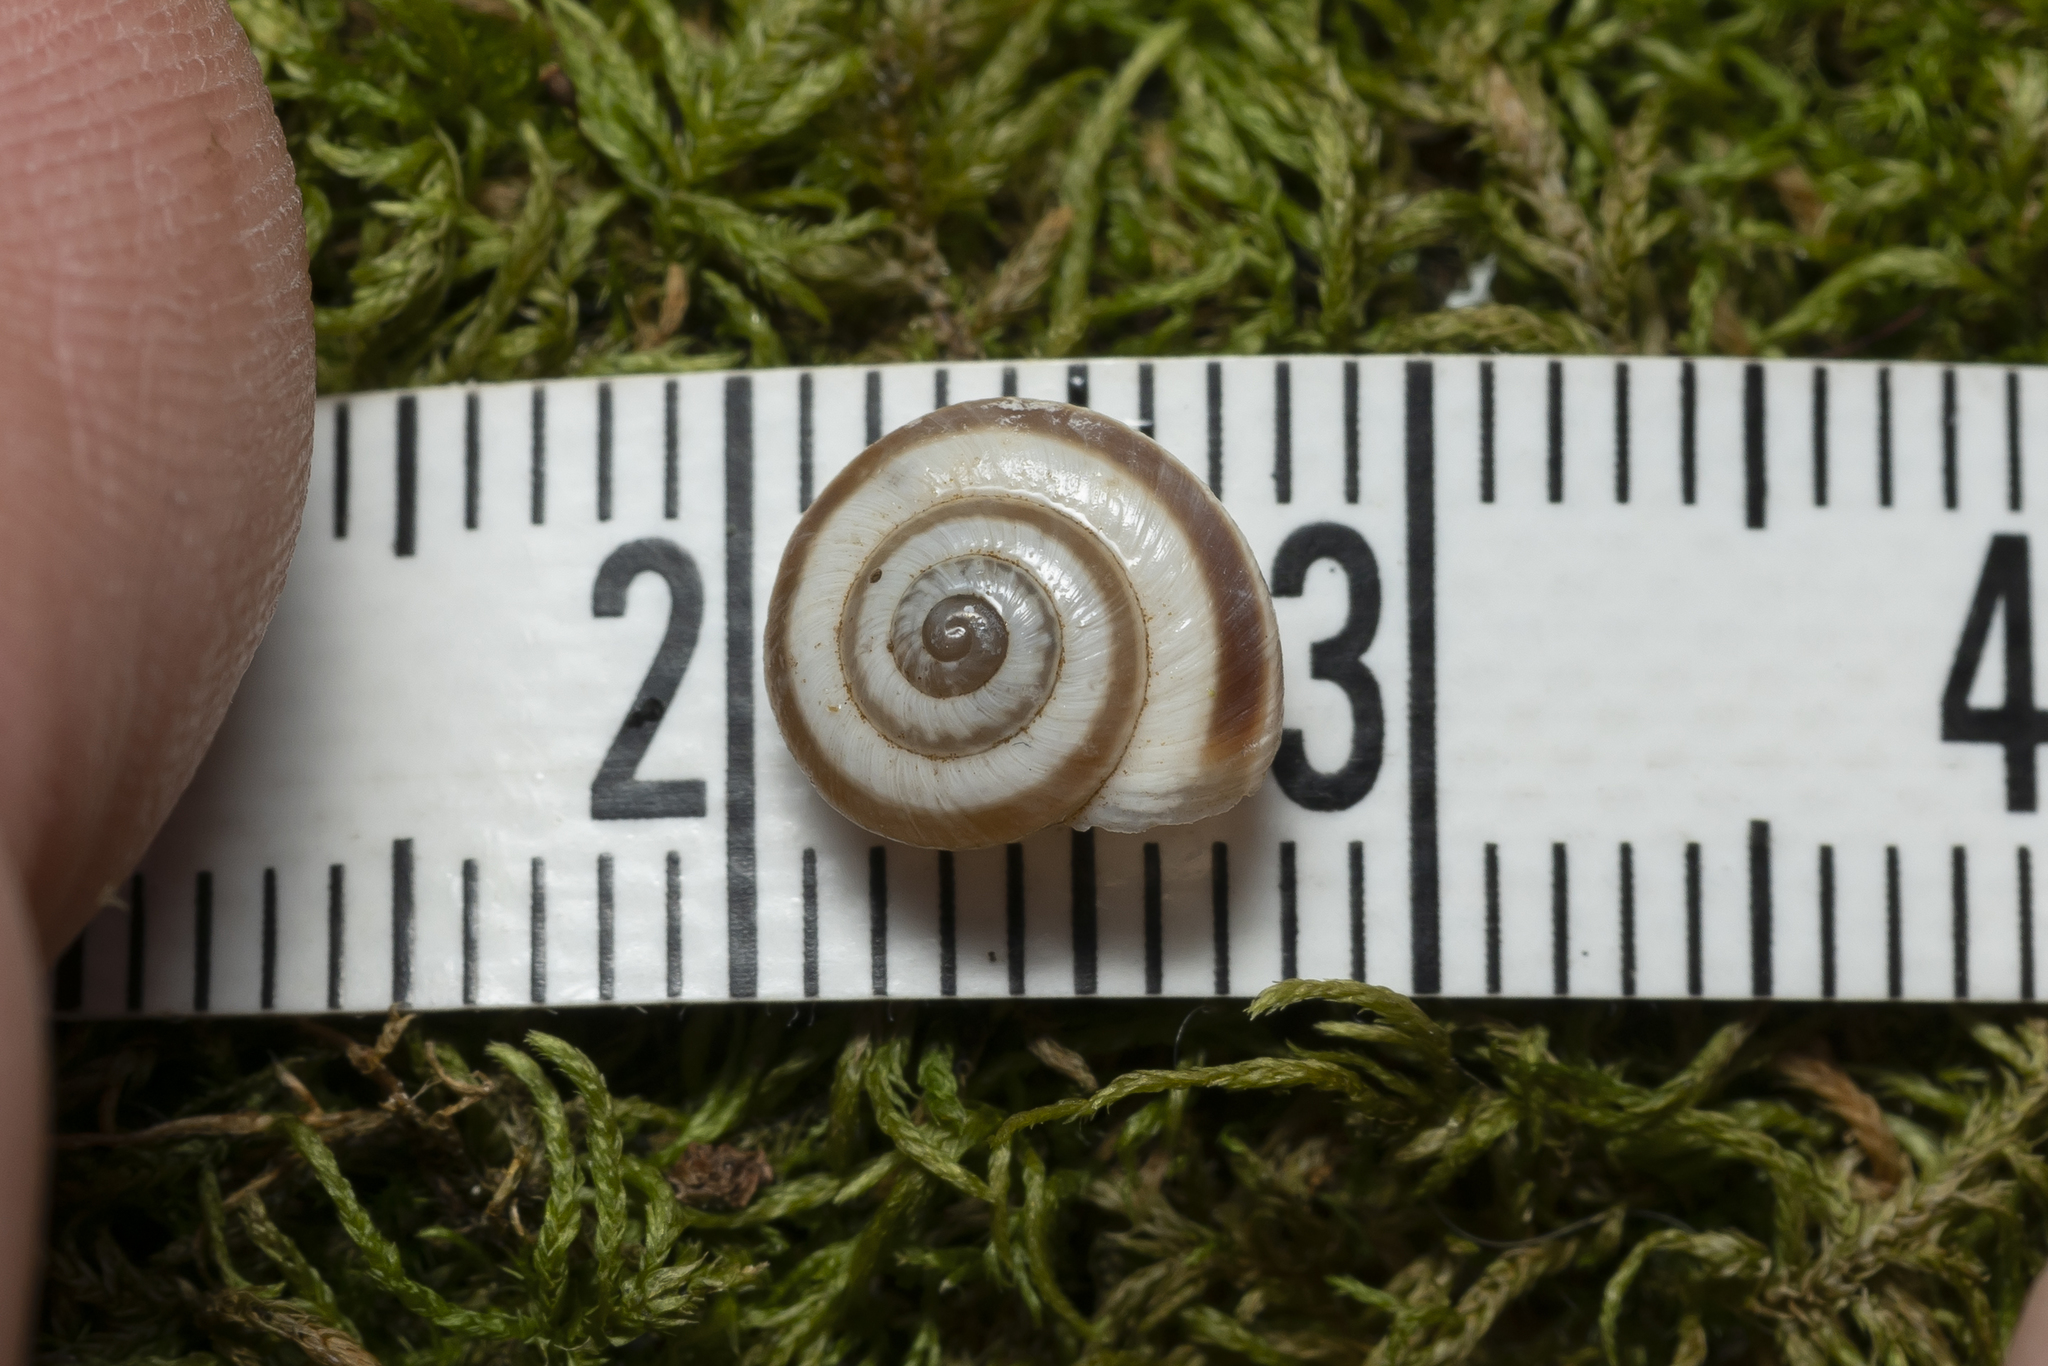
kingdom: Animalia
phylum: Mollusca
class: Gastropoda
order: Stylommatophora
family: Geomitridae
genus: Cernuella
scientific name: Cernuella virgata
